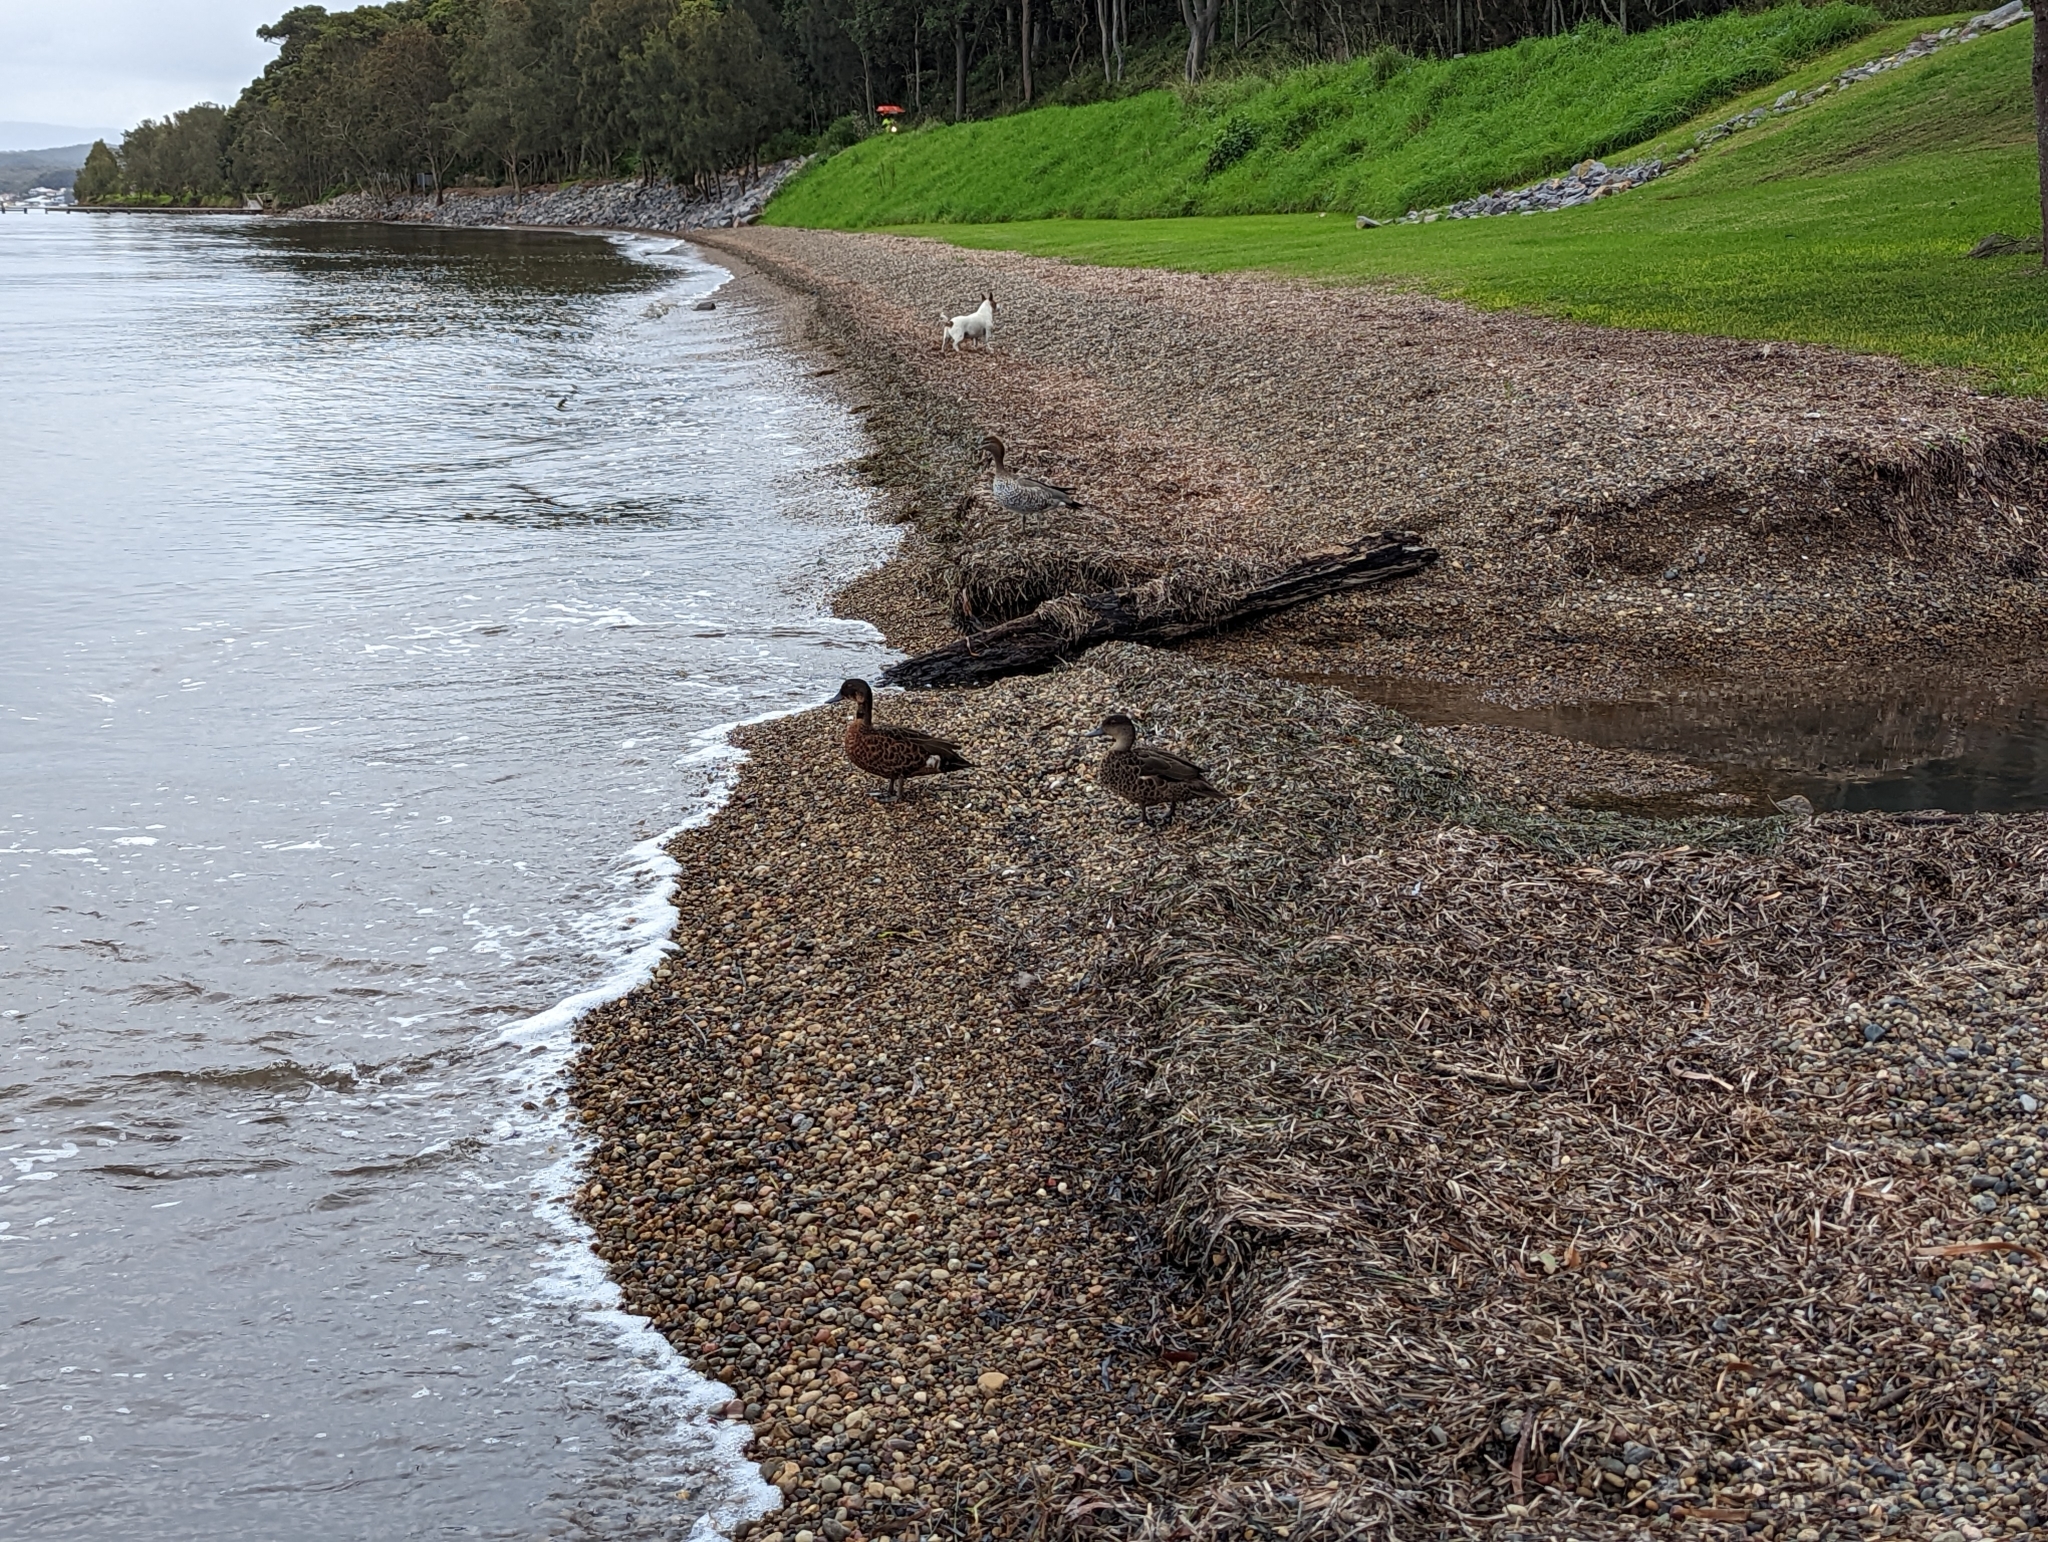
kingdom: Animalia
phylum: Chordata
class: Aves
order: Anseriformes
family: Anatidae
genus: Anas
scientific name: Anas castanea
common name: Chestnut teal
